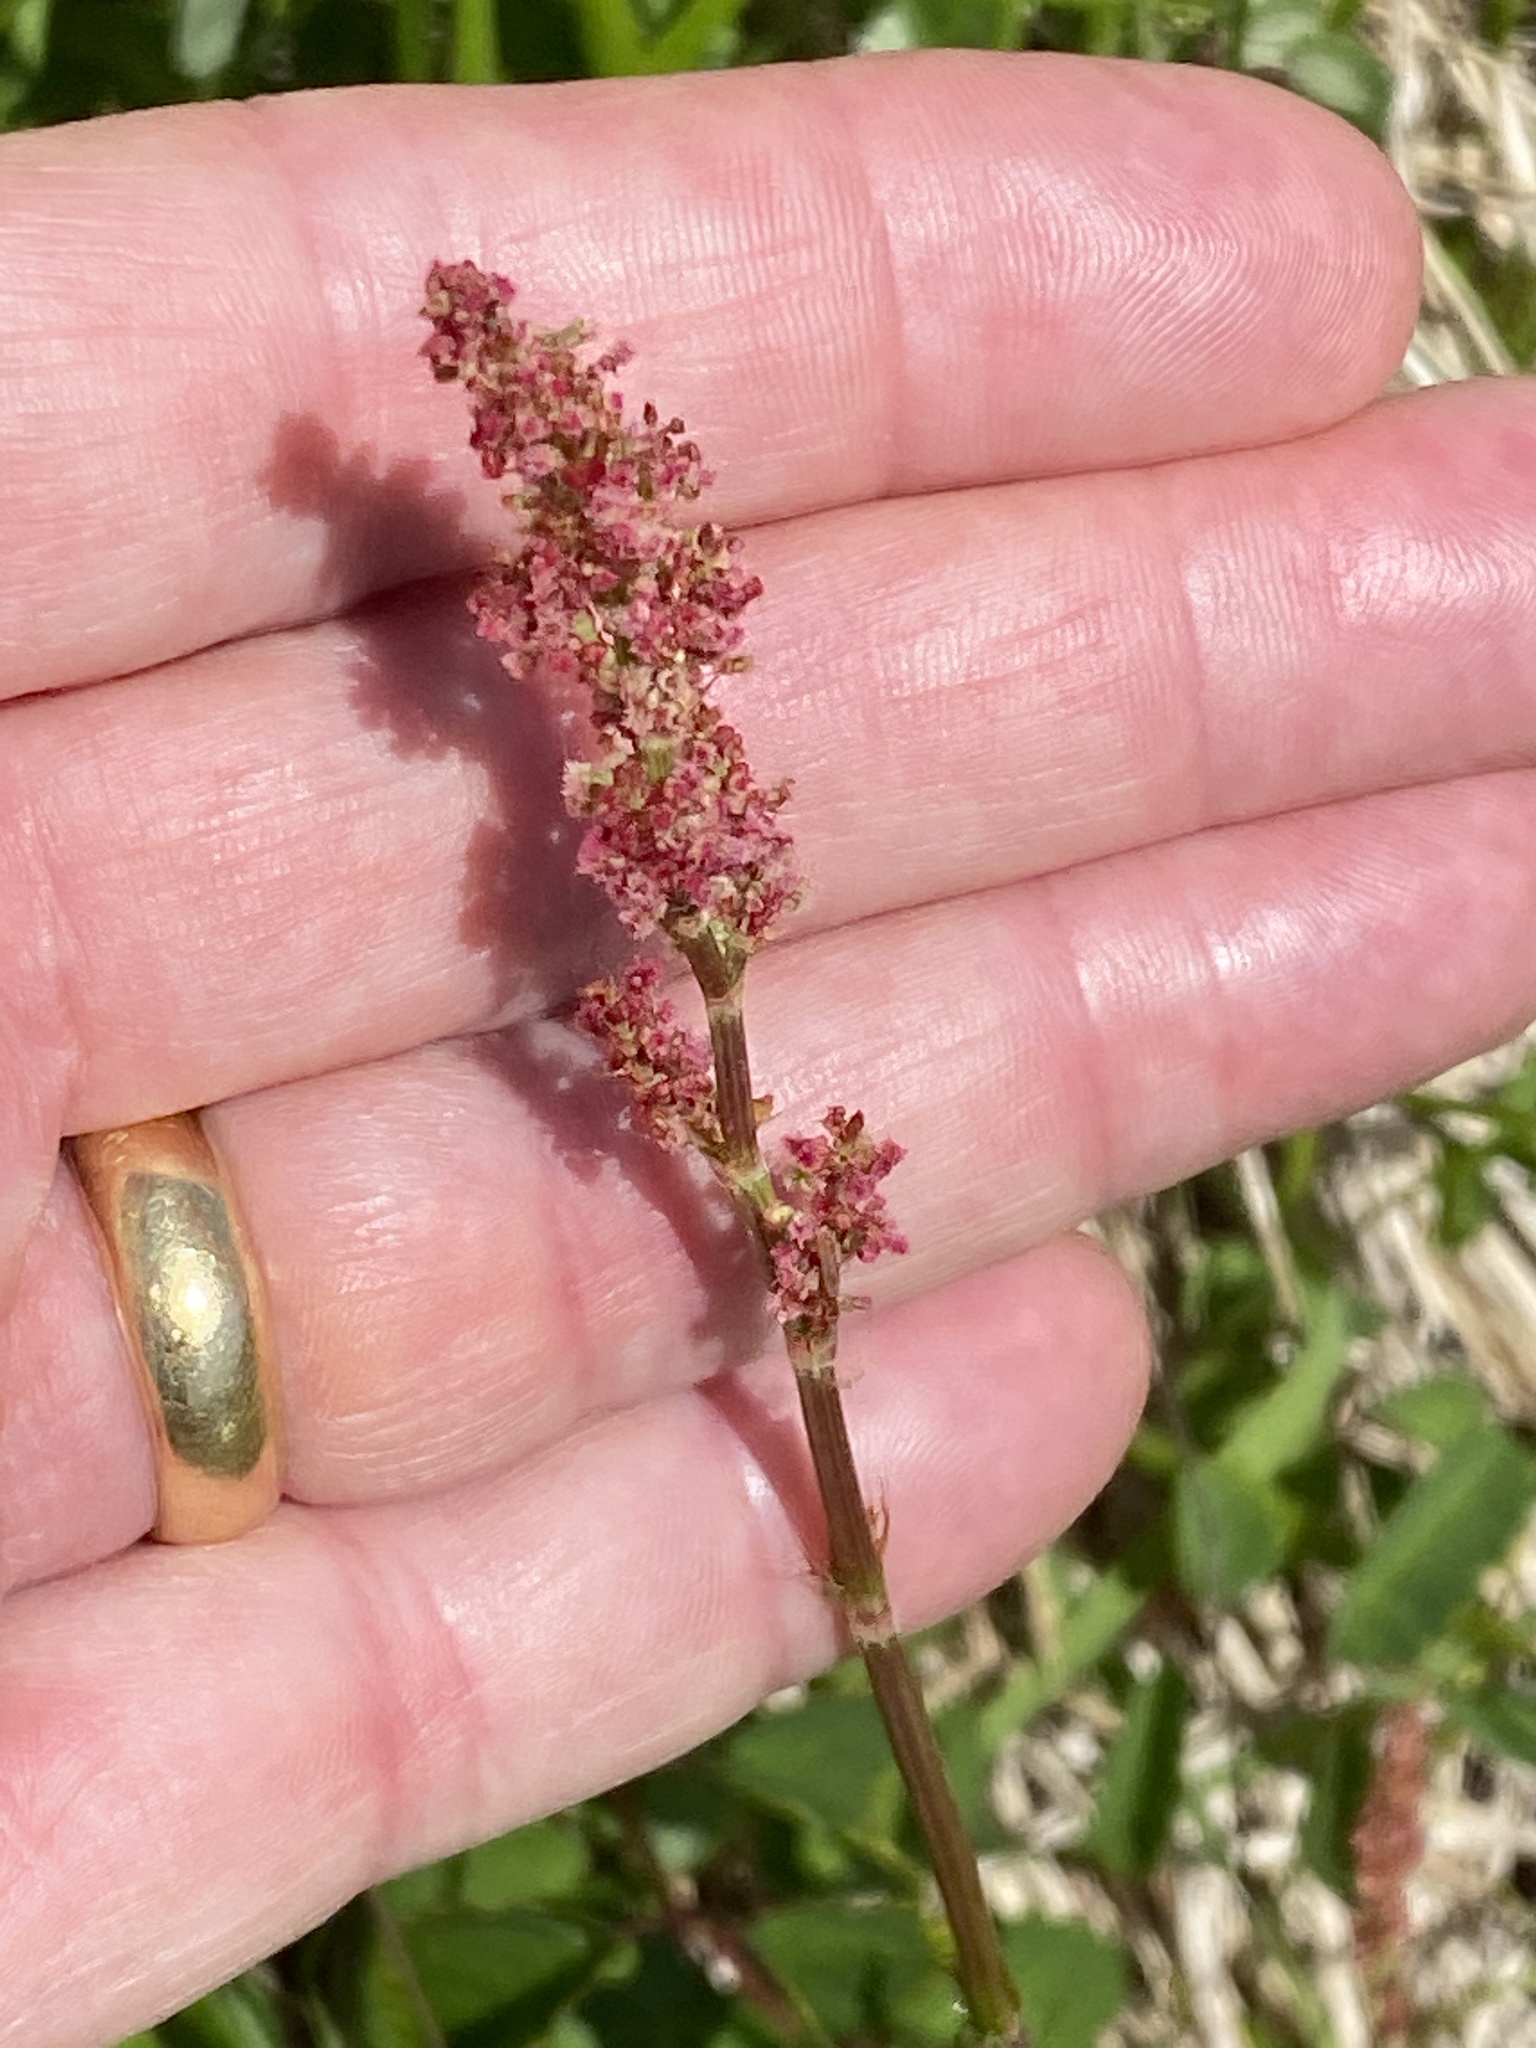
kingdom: Plantae
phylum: Tracheophyta
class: Magnoliopsida
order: Caryophyllales
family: Polygonaceae
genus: Rumex
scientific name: Rumex acetosa
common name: Garden sorrel
